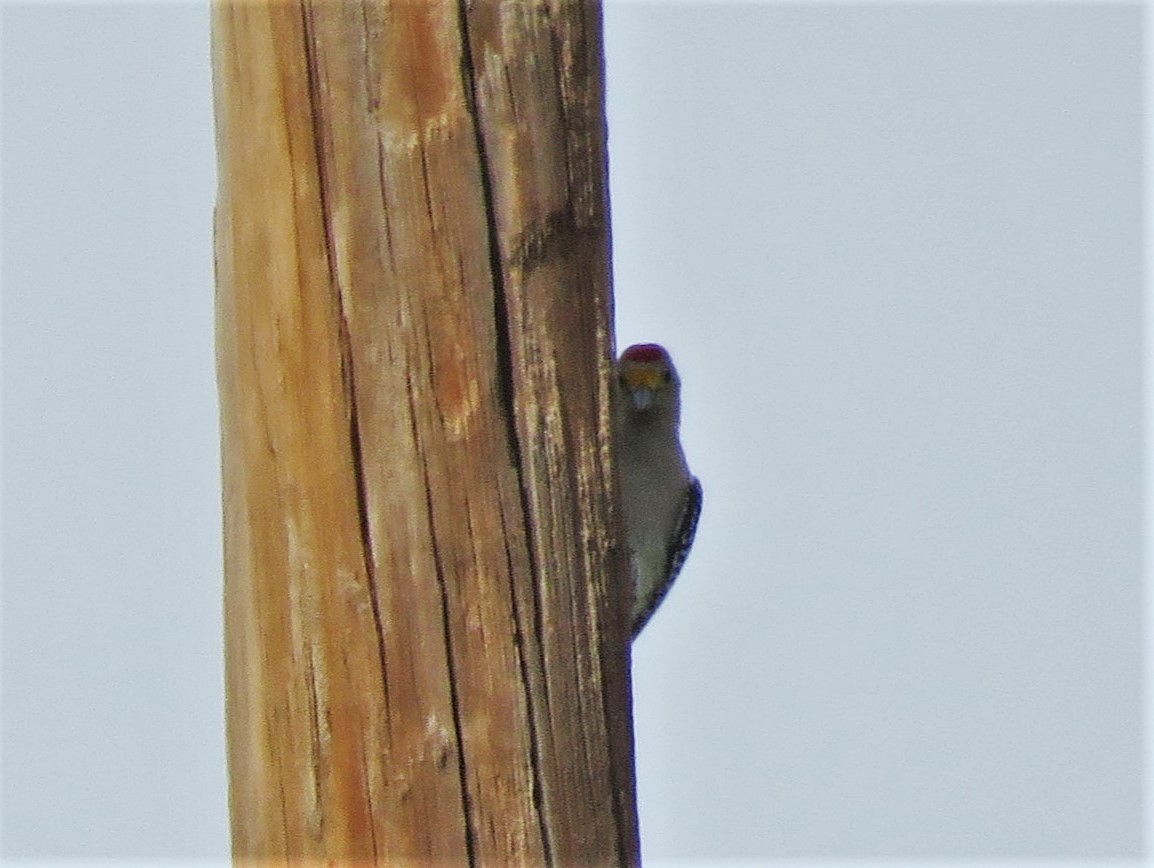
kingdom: Animalia
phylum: Chordata
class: Aves
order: Piciformes
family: Picidae
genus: Melanerpes
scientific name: Melanerpes aurifrons
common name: Golden-fronted woodpecker
